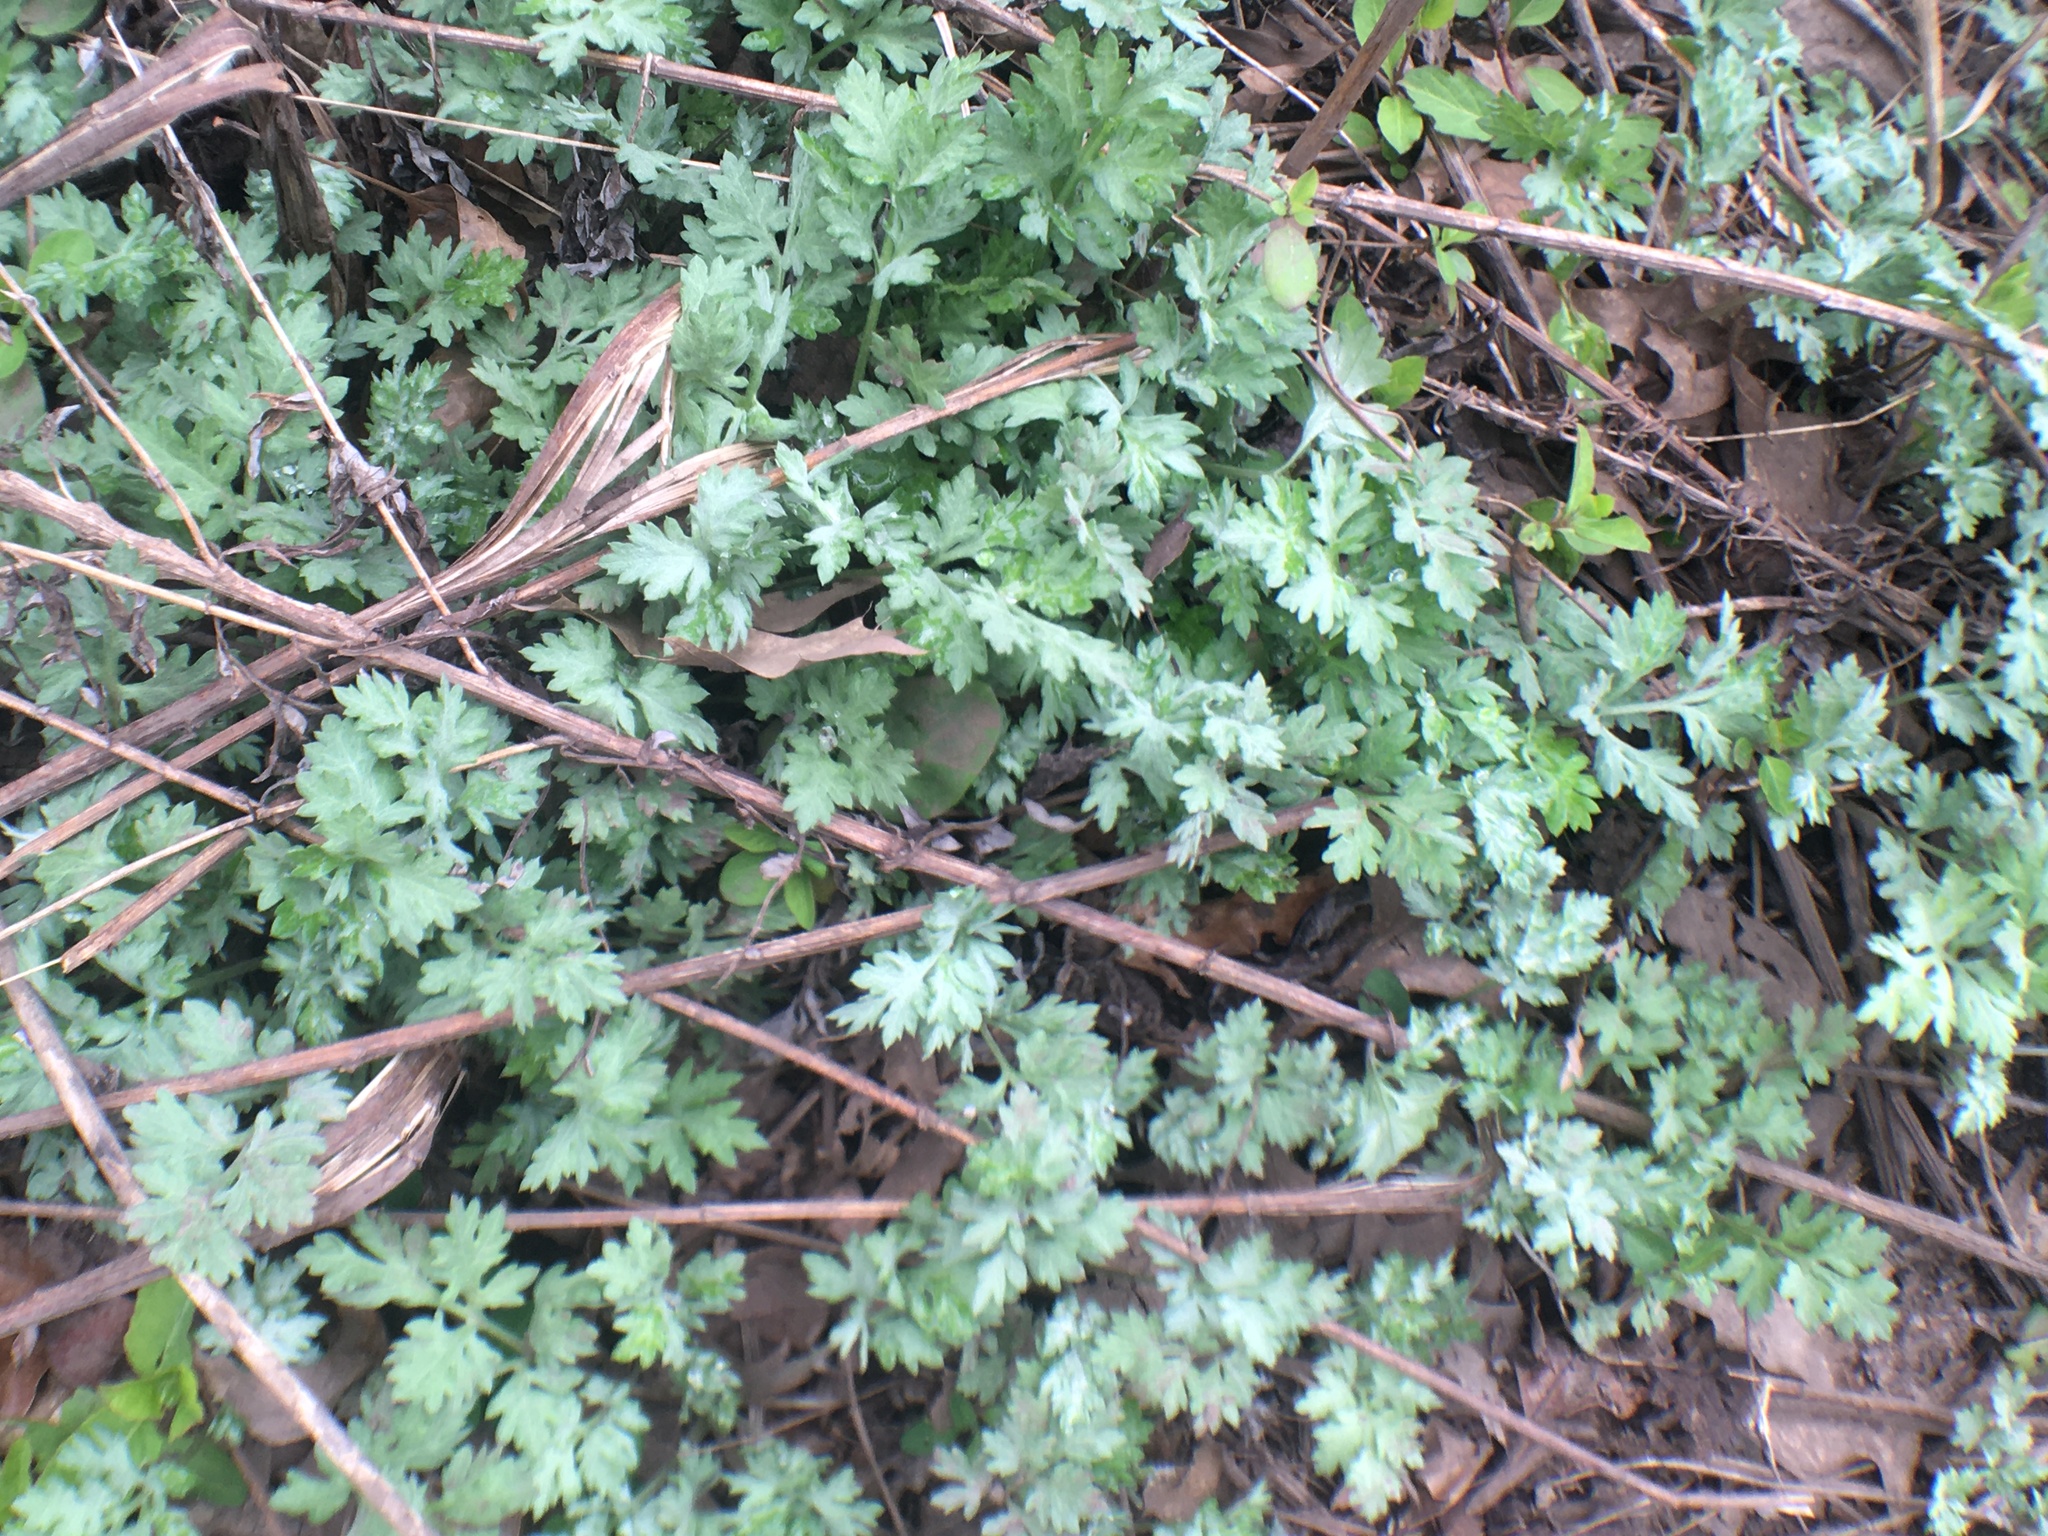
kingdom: Plantae
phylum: Tracheophyta
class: Magnoliopsida
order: Asterales
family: Asteraceae
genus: Artemisia
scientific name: Artemisia vulgaris
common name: Mugwort
